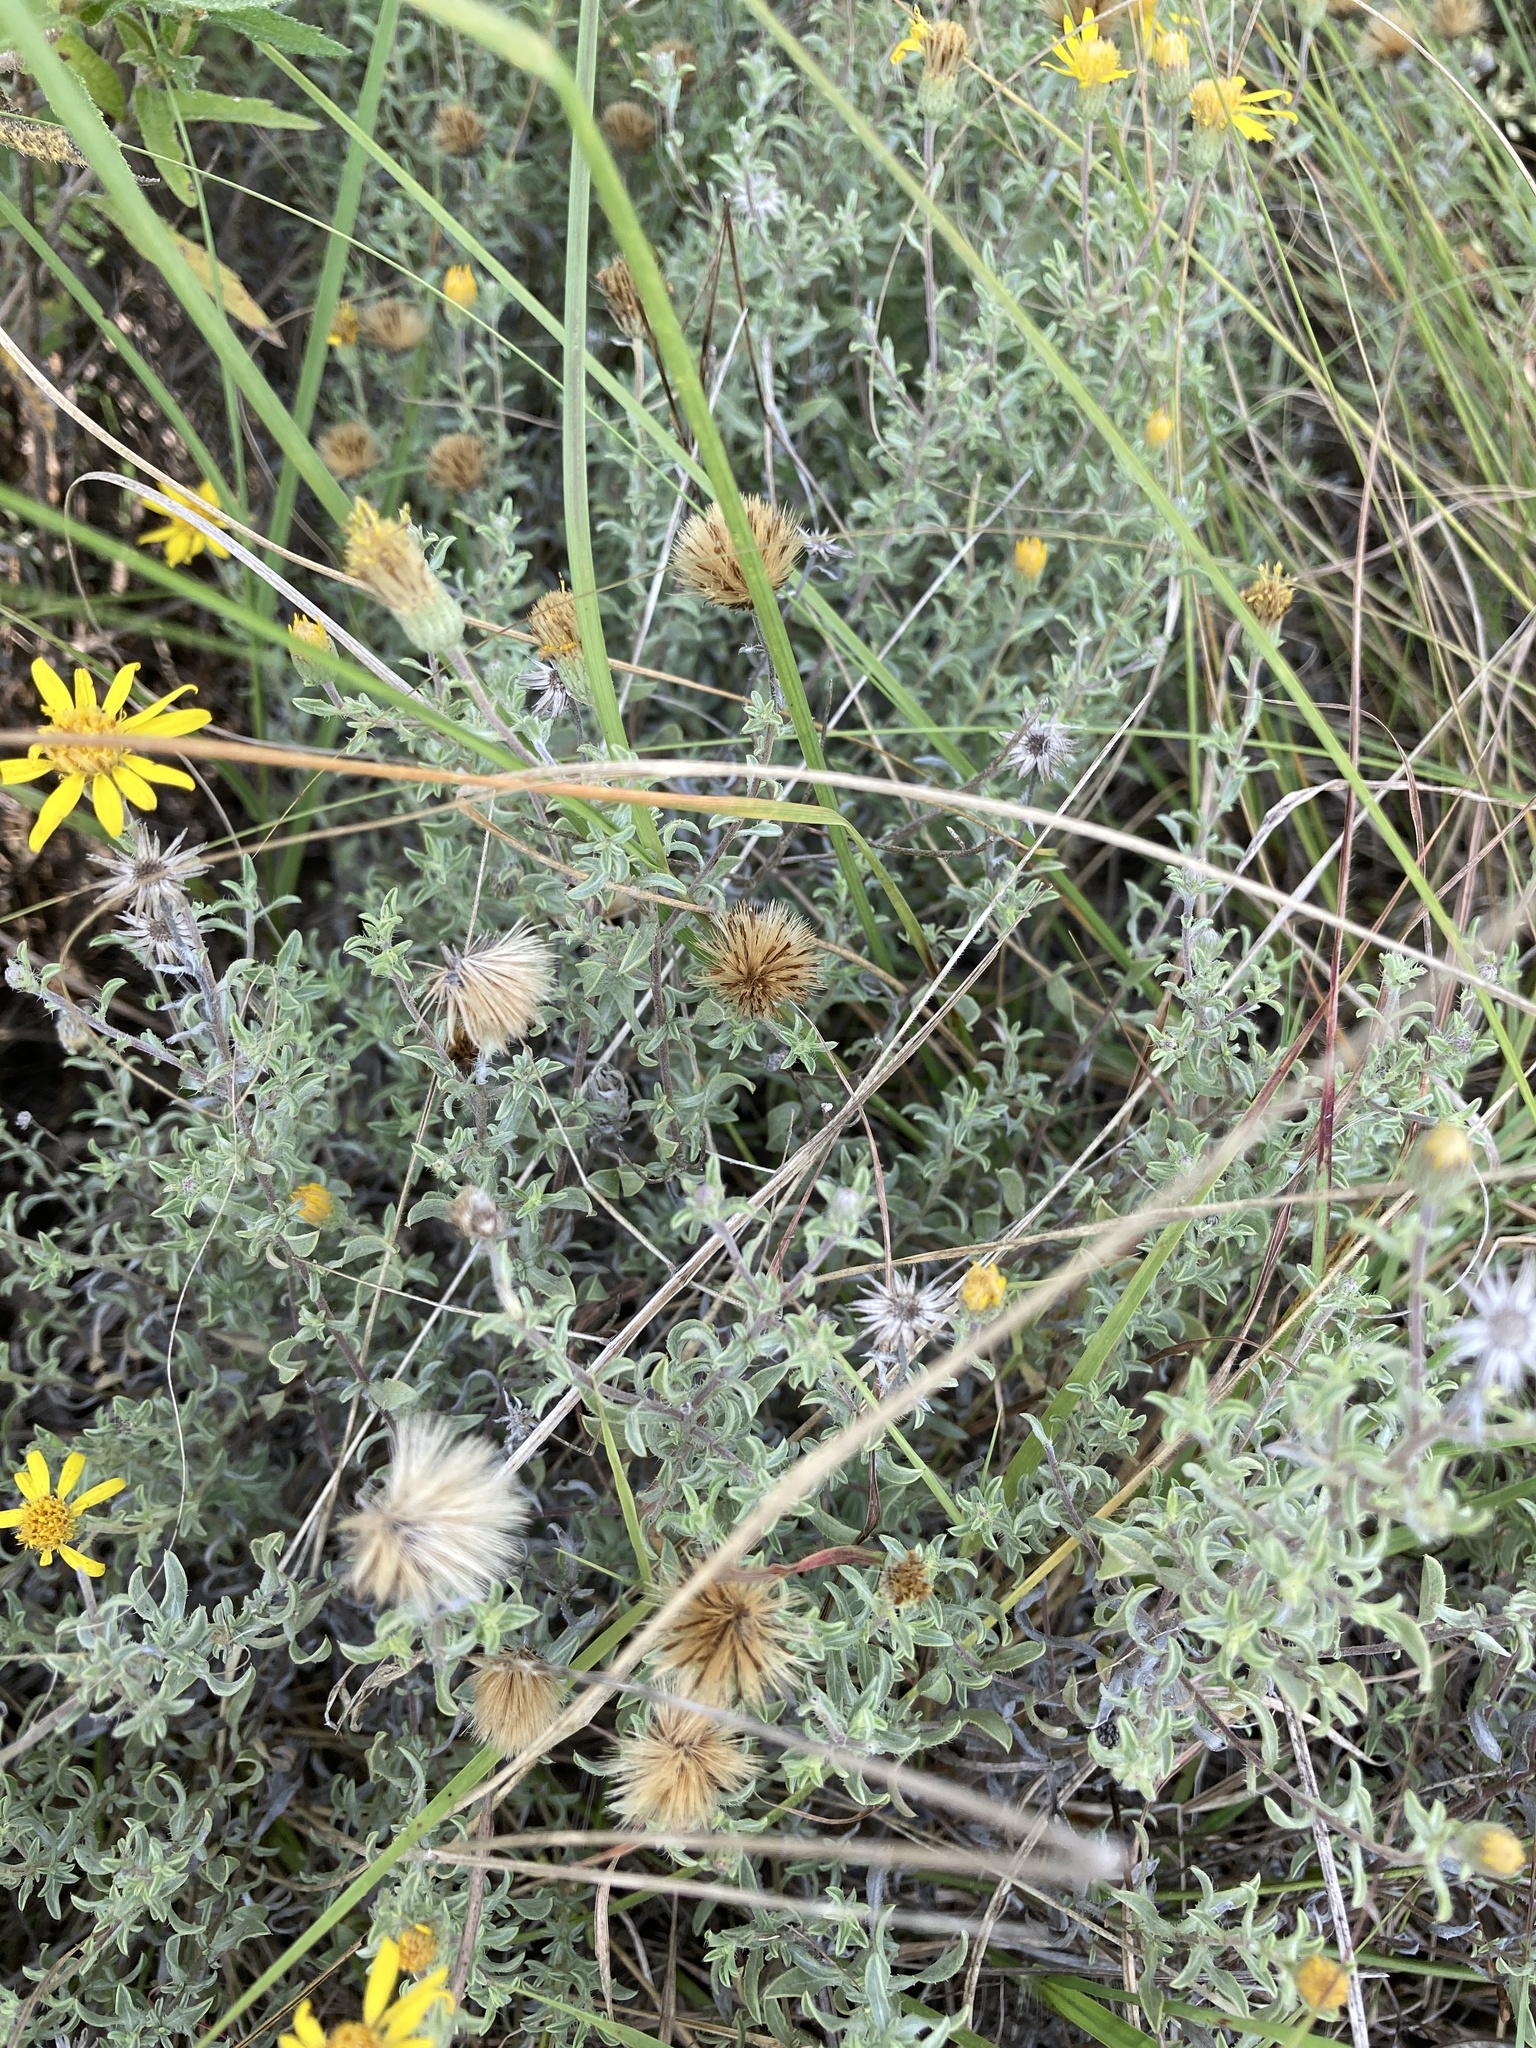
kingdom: Plantae
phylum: Tracheophyta
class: Magnoliopsida
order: Asterales
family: Asteraceae
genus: Heterotheca
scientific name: Heterotheca canescens
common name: Hoary golden-aster
